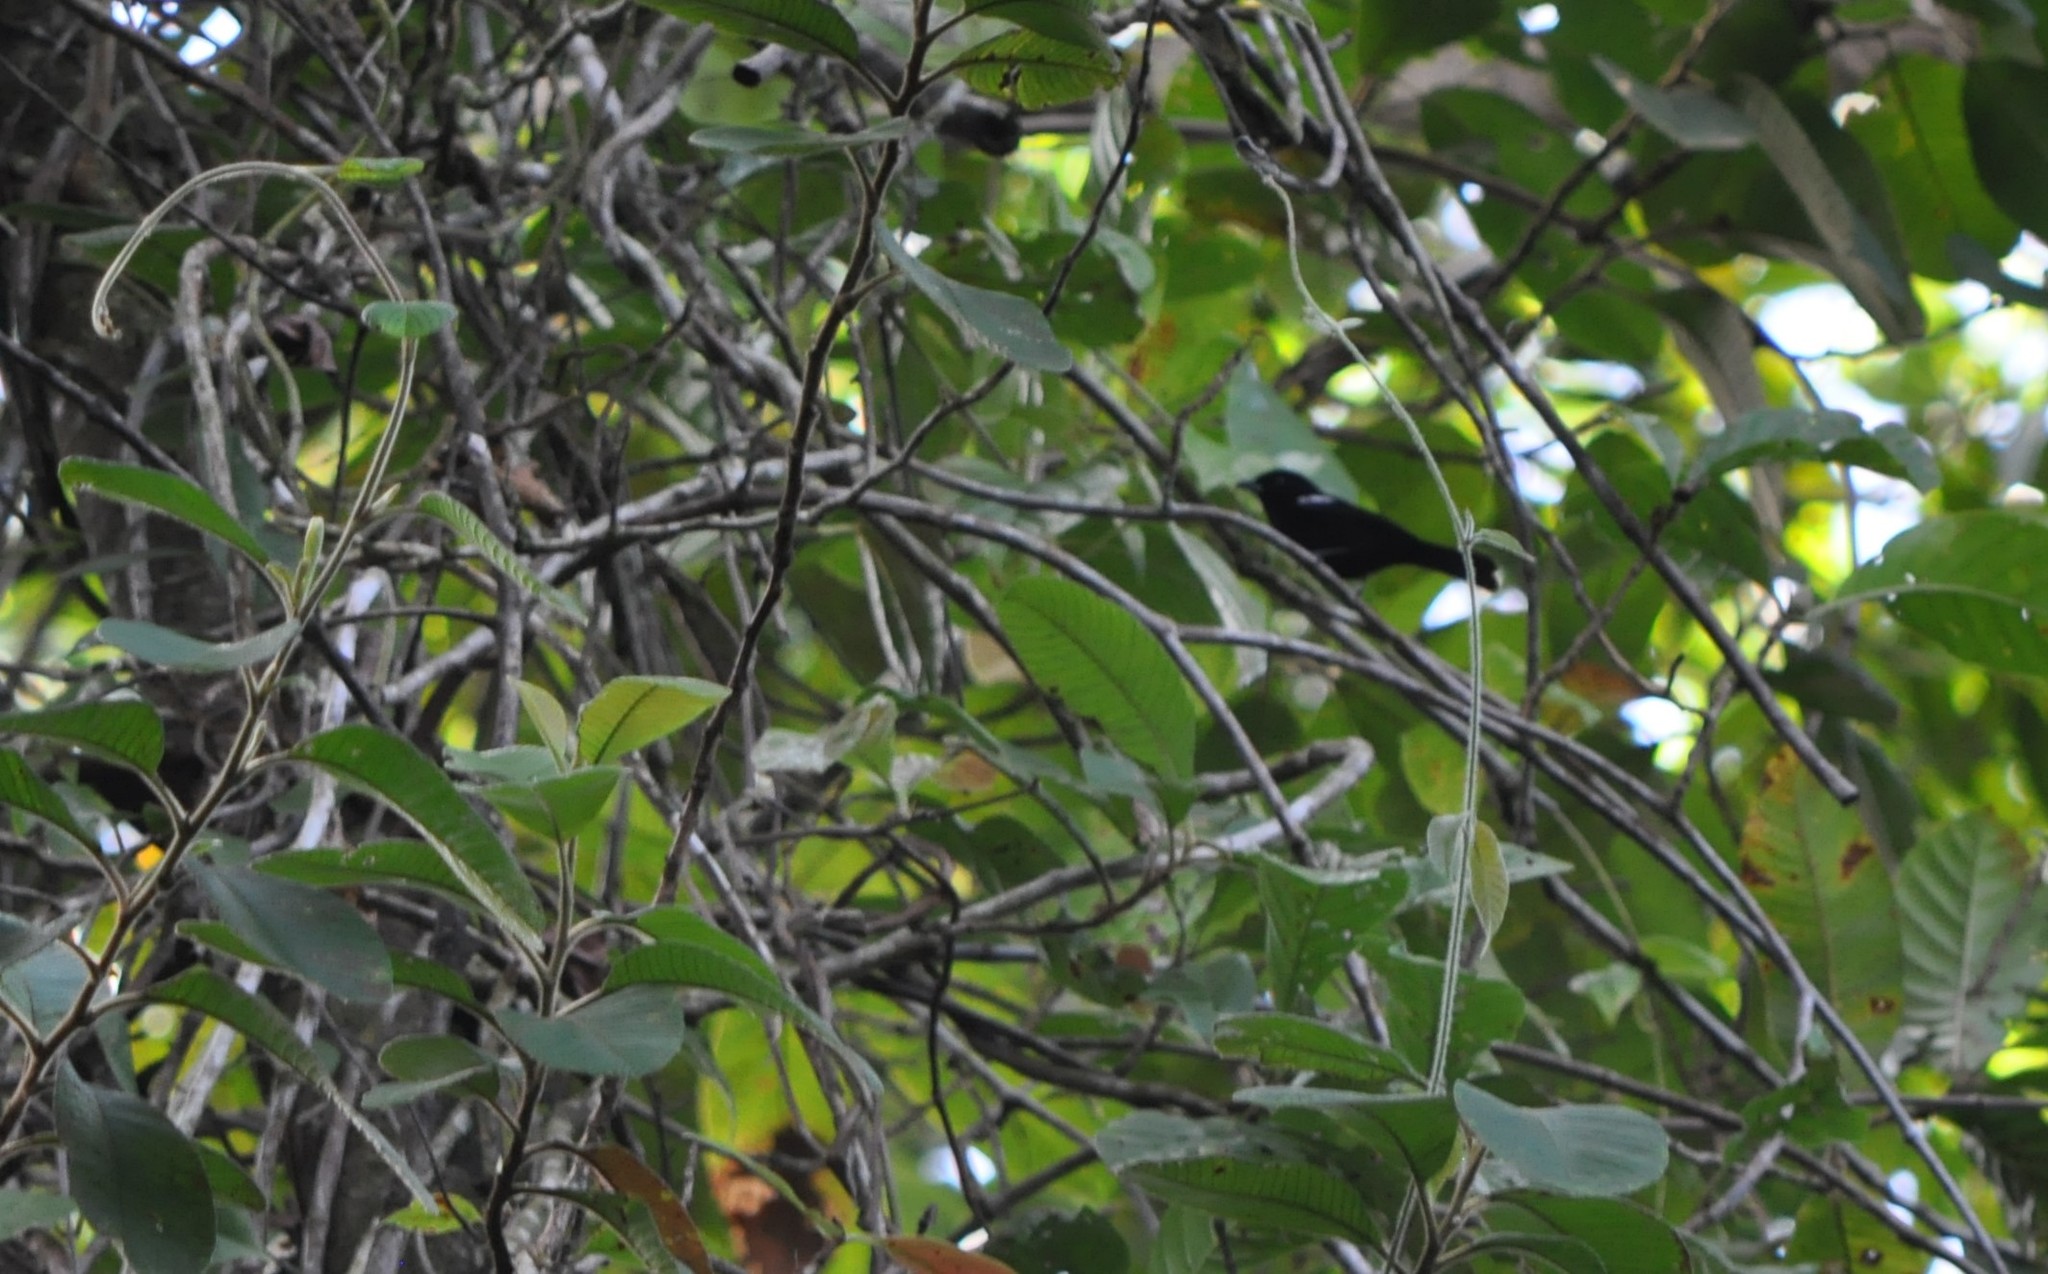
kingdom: Animalia
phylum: Chordata
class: Aves
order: Passeriformes
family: Thraupidae
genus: Loriotus
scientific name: Loriotus luctuosus
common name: White-shouldered tanager
